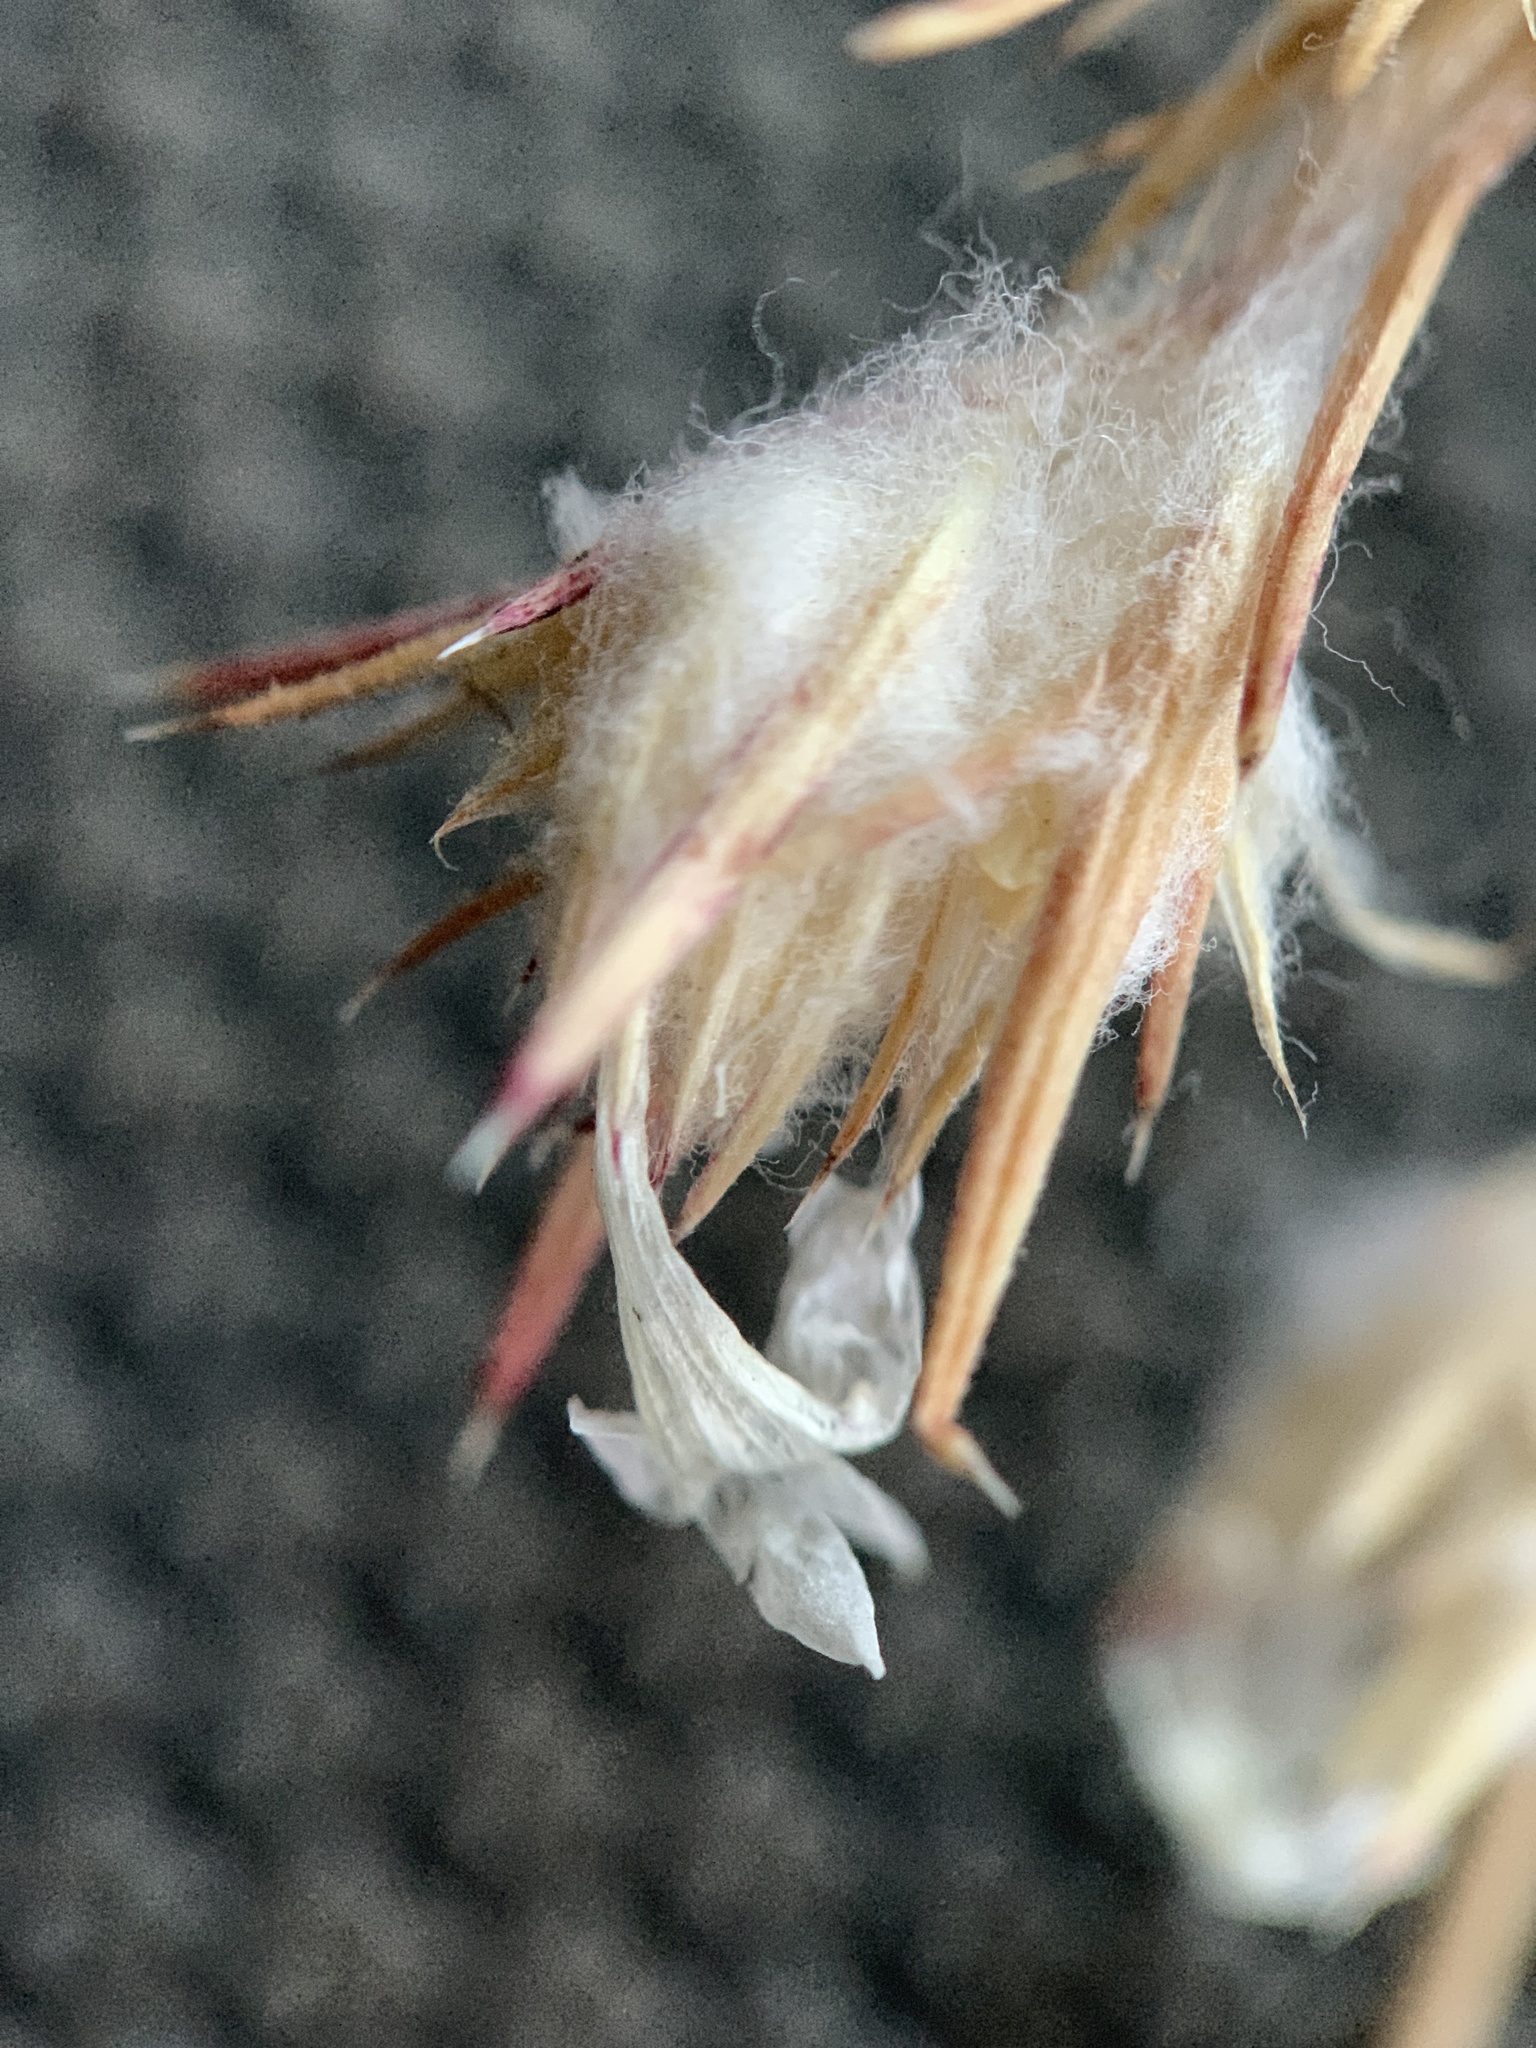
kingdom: Plantae
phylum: Tracheophyta
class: Magnoliopsida
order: Ericales
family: Polemoniaceae
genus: Eriastrum
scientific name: Eriastrum wilcoxii
